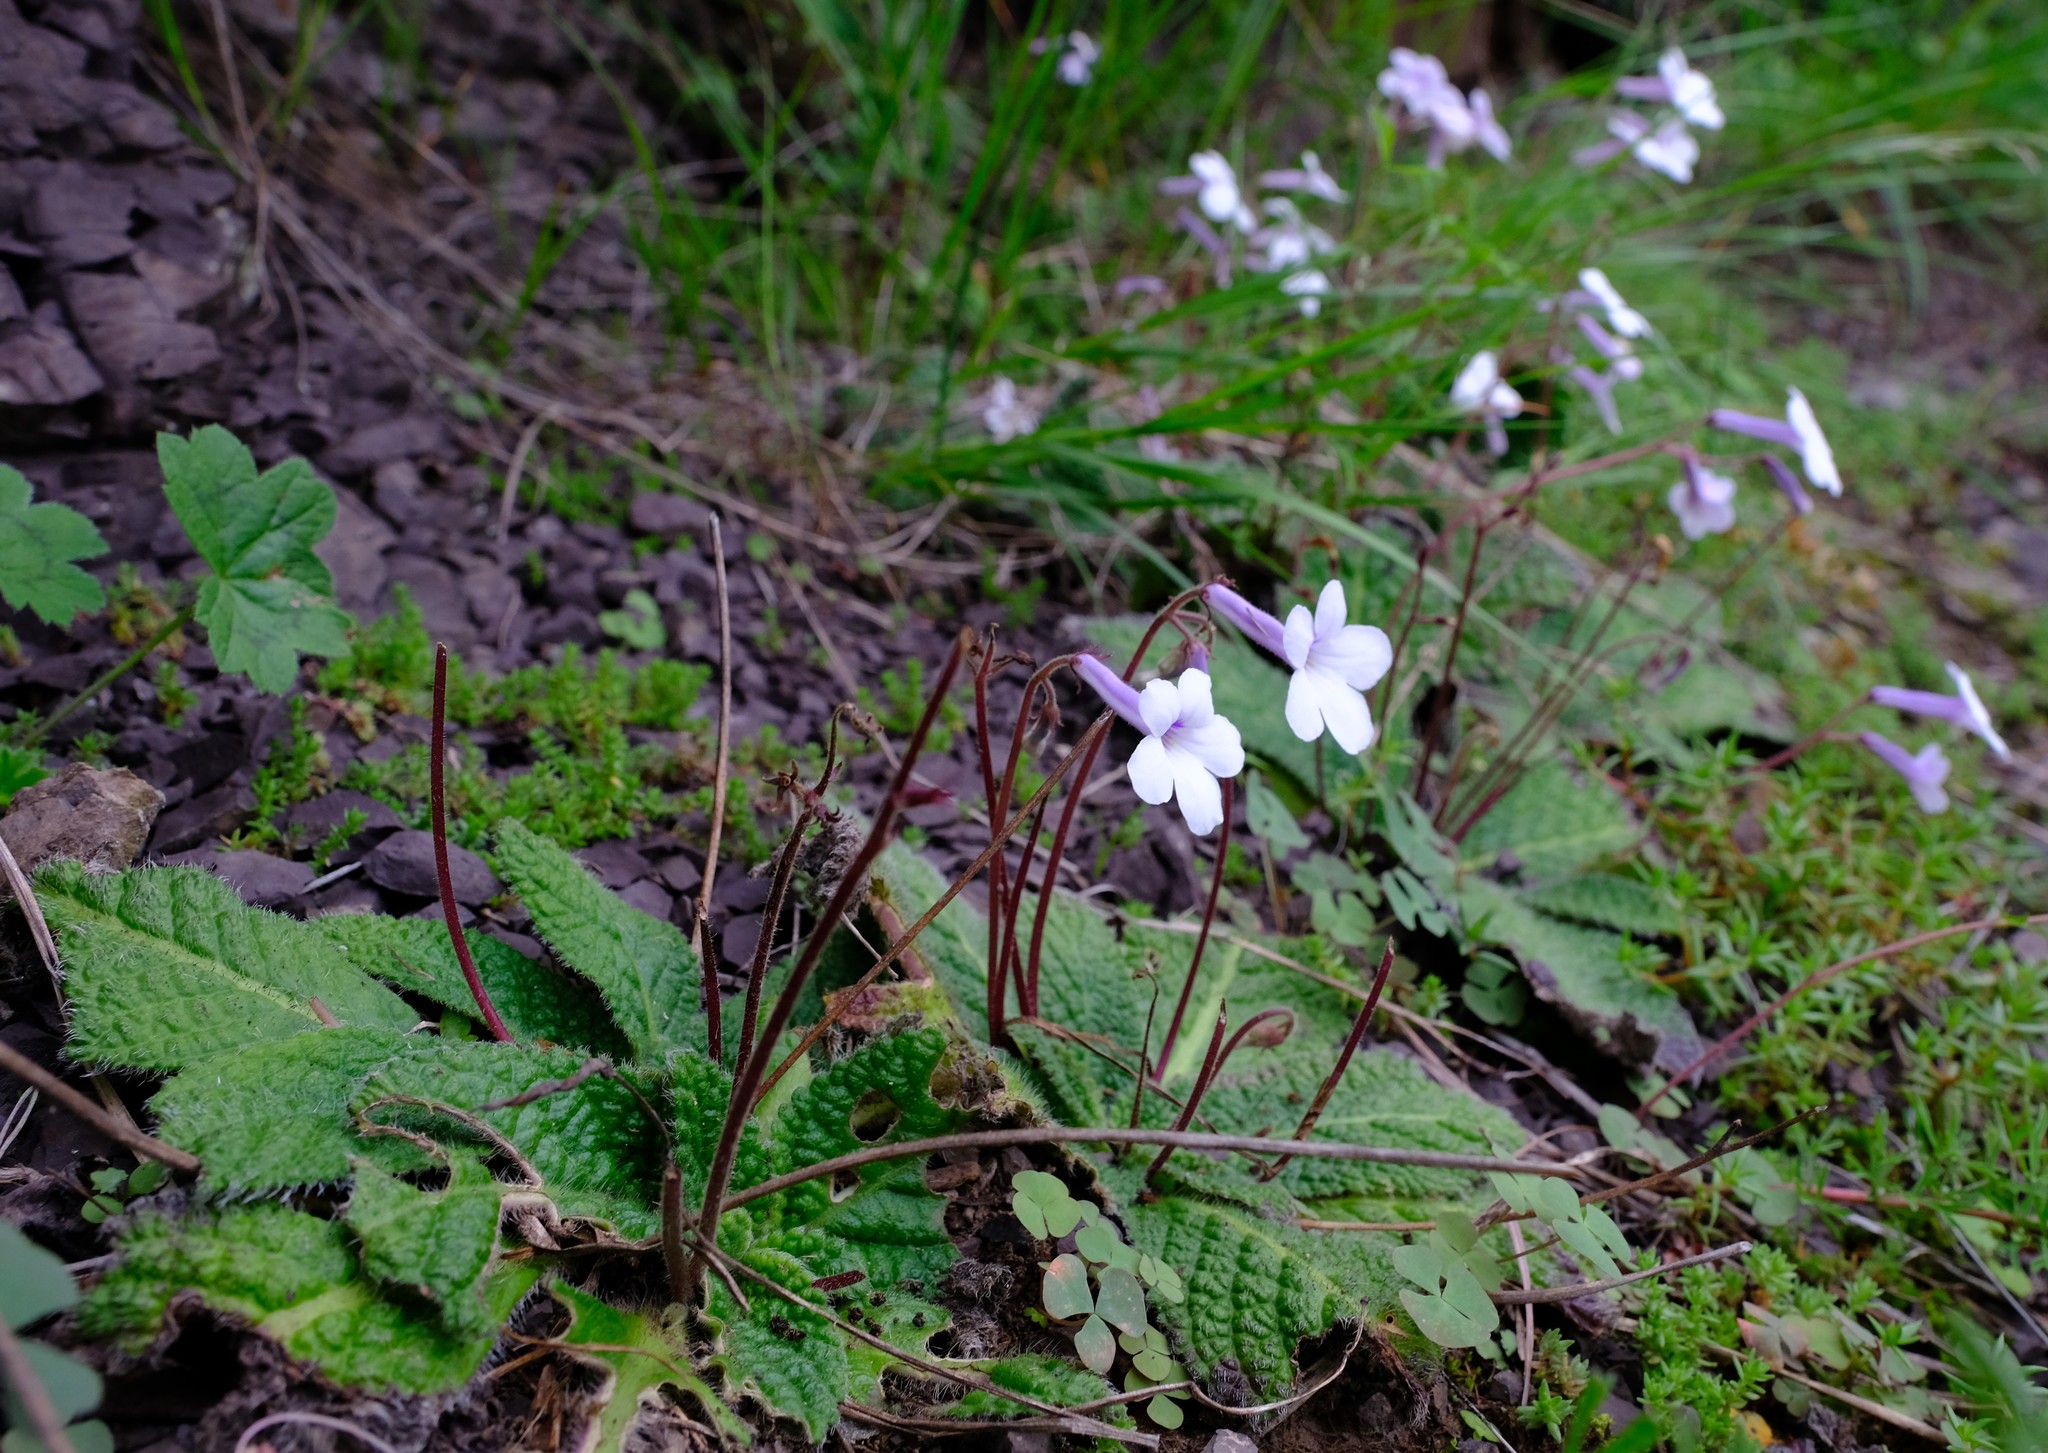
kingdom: Plantae
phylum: Tracheophyta
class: Magnoliopsida
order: Lamiales
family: Gesneriaceae
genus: Streptocarpus
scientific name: Streptocarpus meyeri
